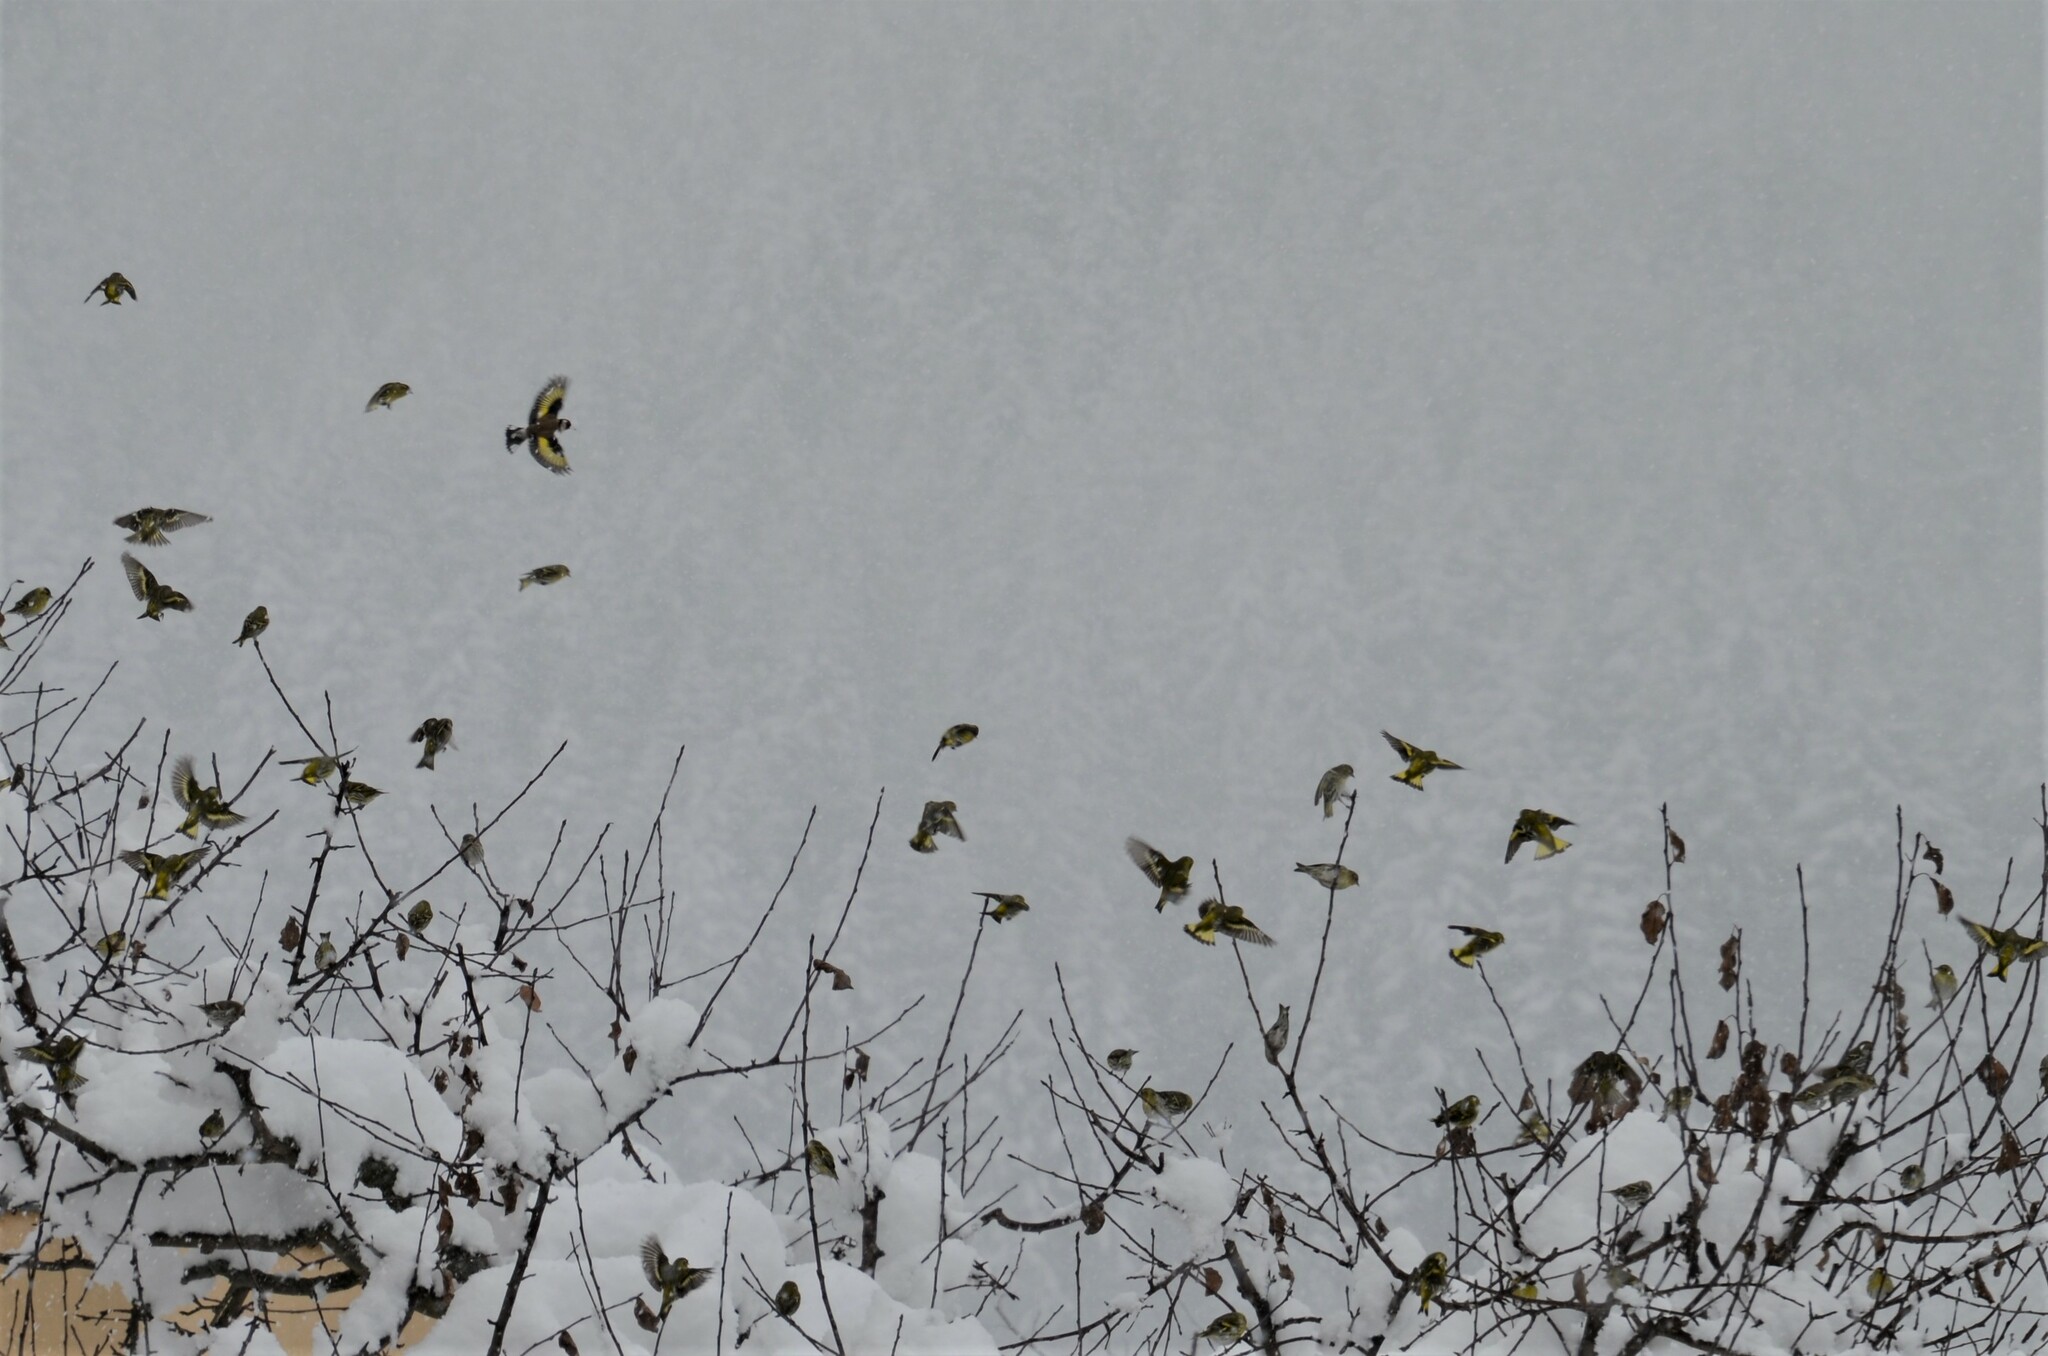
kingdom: Animalia
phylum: Chordata
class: Aves
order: Passeriformes
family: Fringillidae
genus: Spinus
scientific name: Spinus spinus
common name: Eurasian siskin
